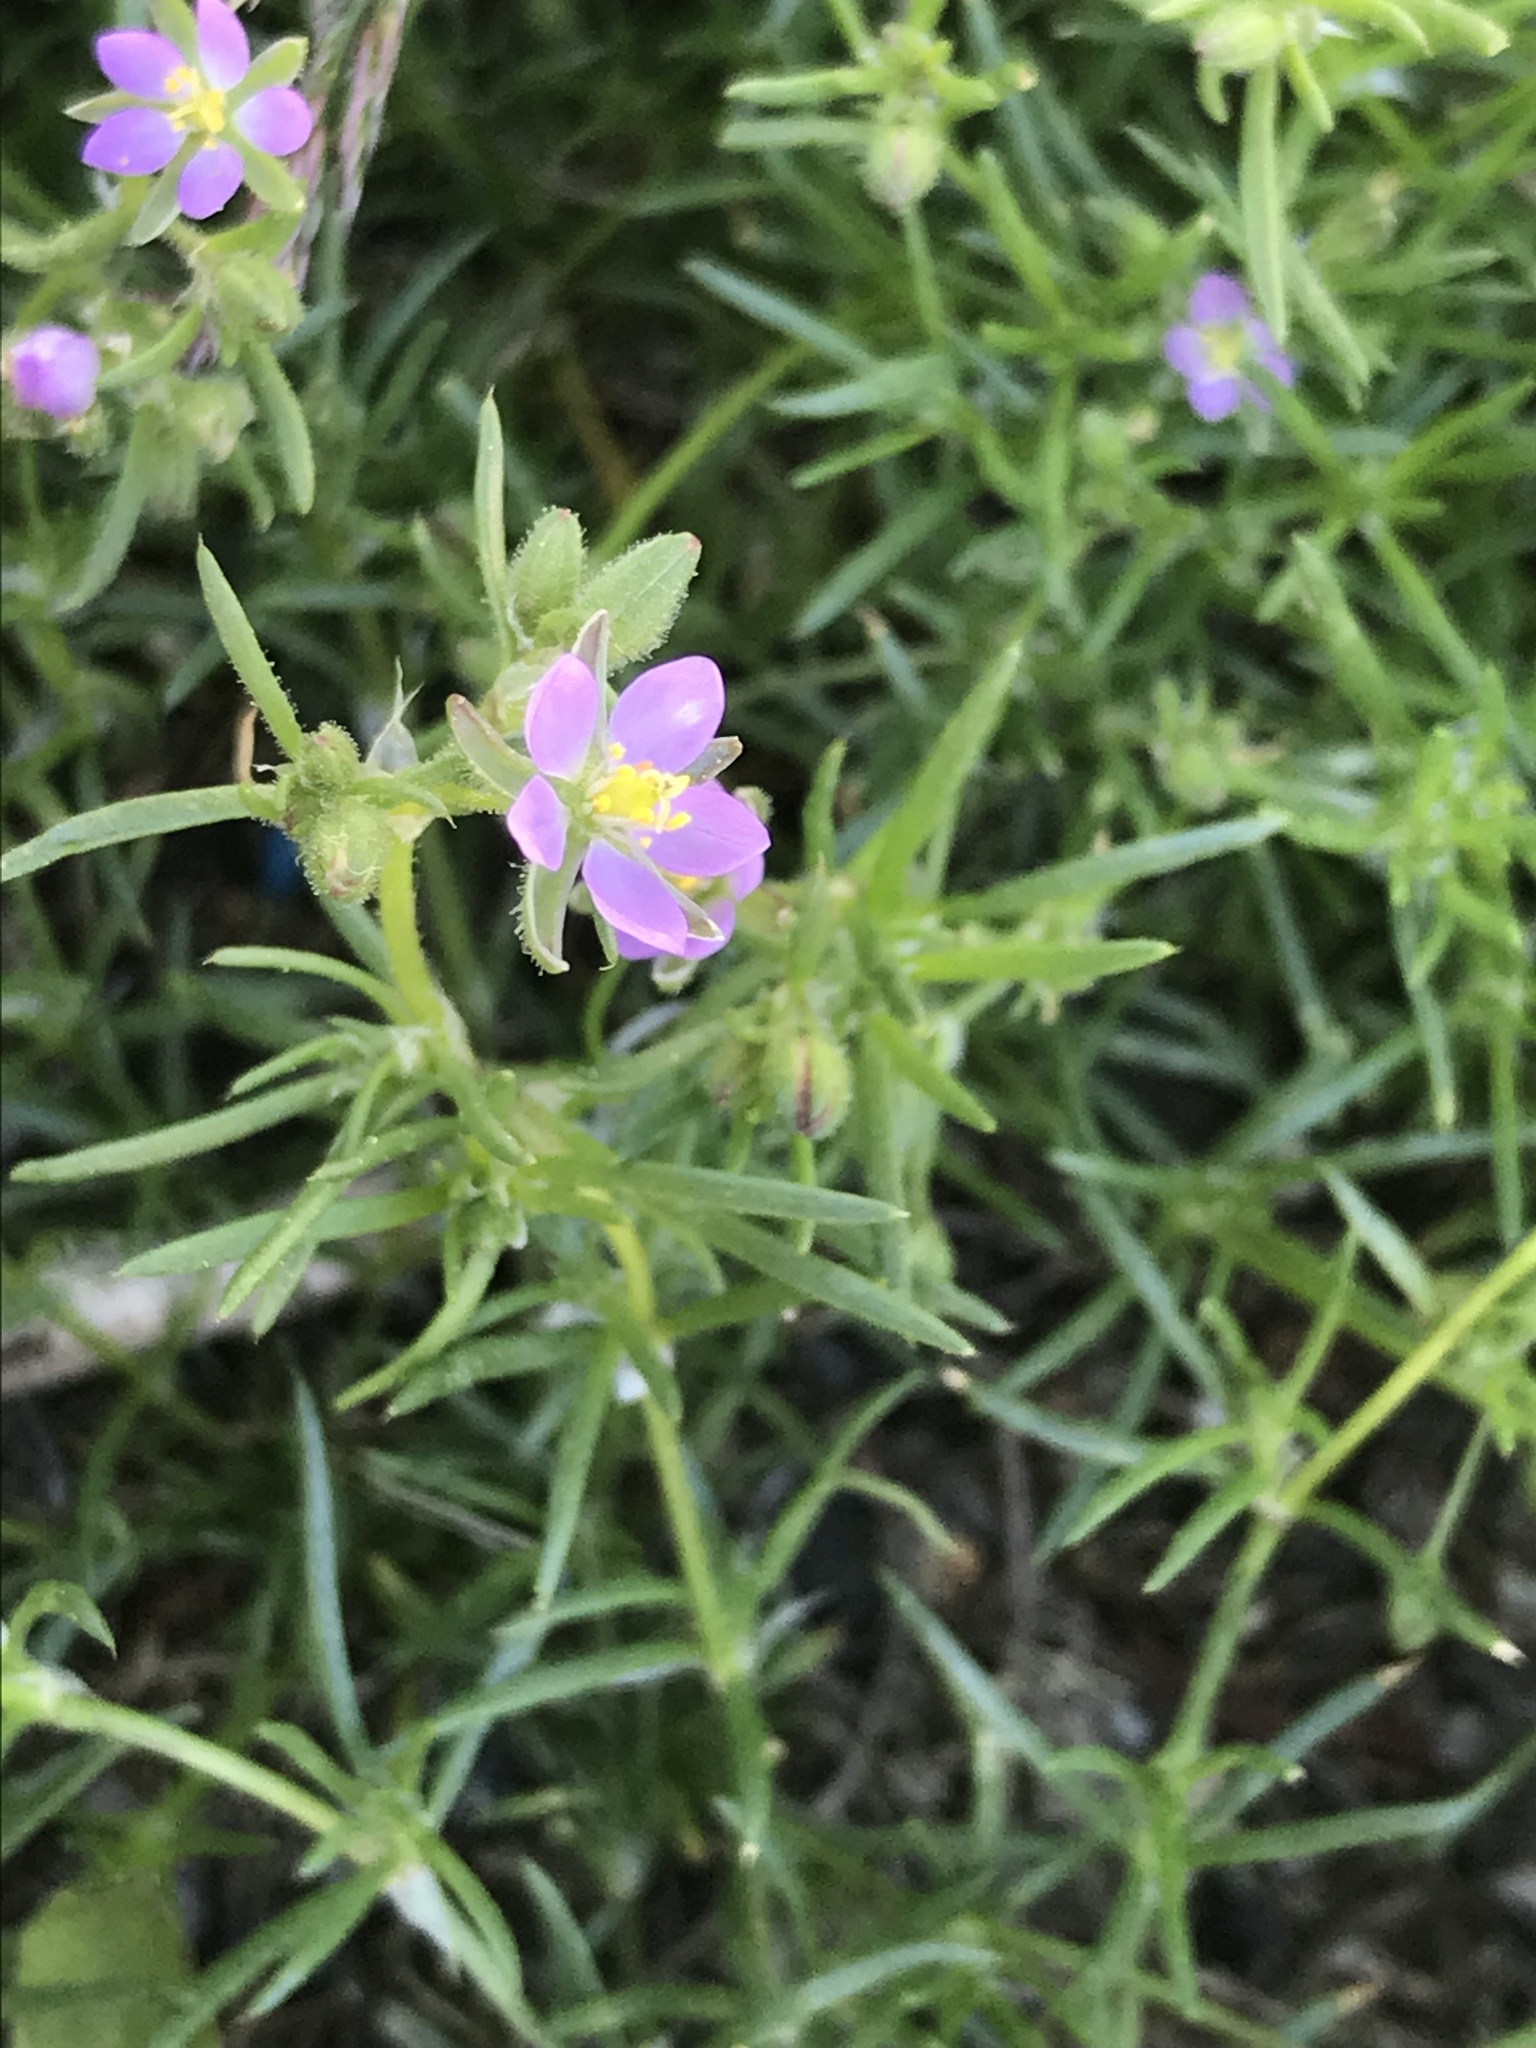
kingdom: Plantae
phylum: Tracheophyta
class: Magnoliopsida
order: Caryophyllales
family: Caryophyllaceae
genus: Spergularia
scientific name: Spergularia rubra
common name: Red sand-spurrey
